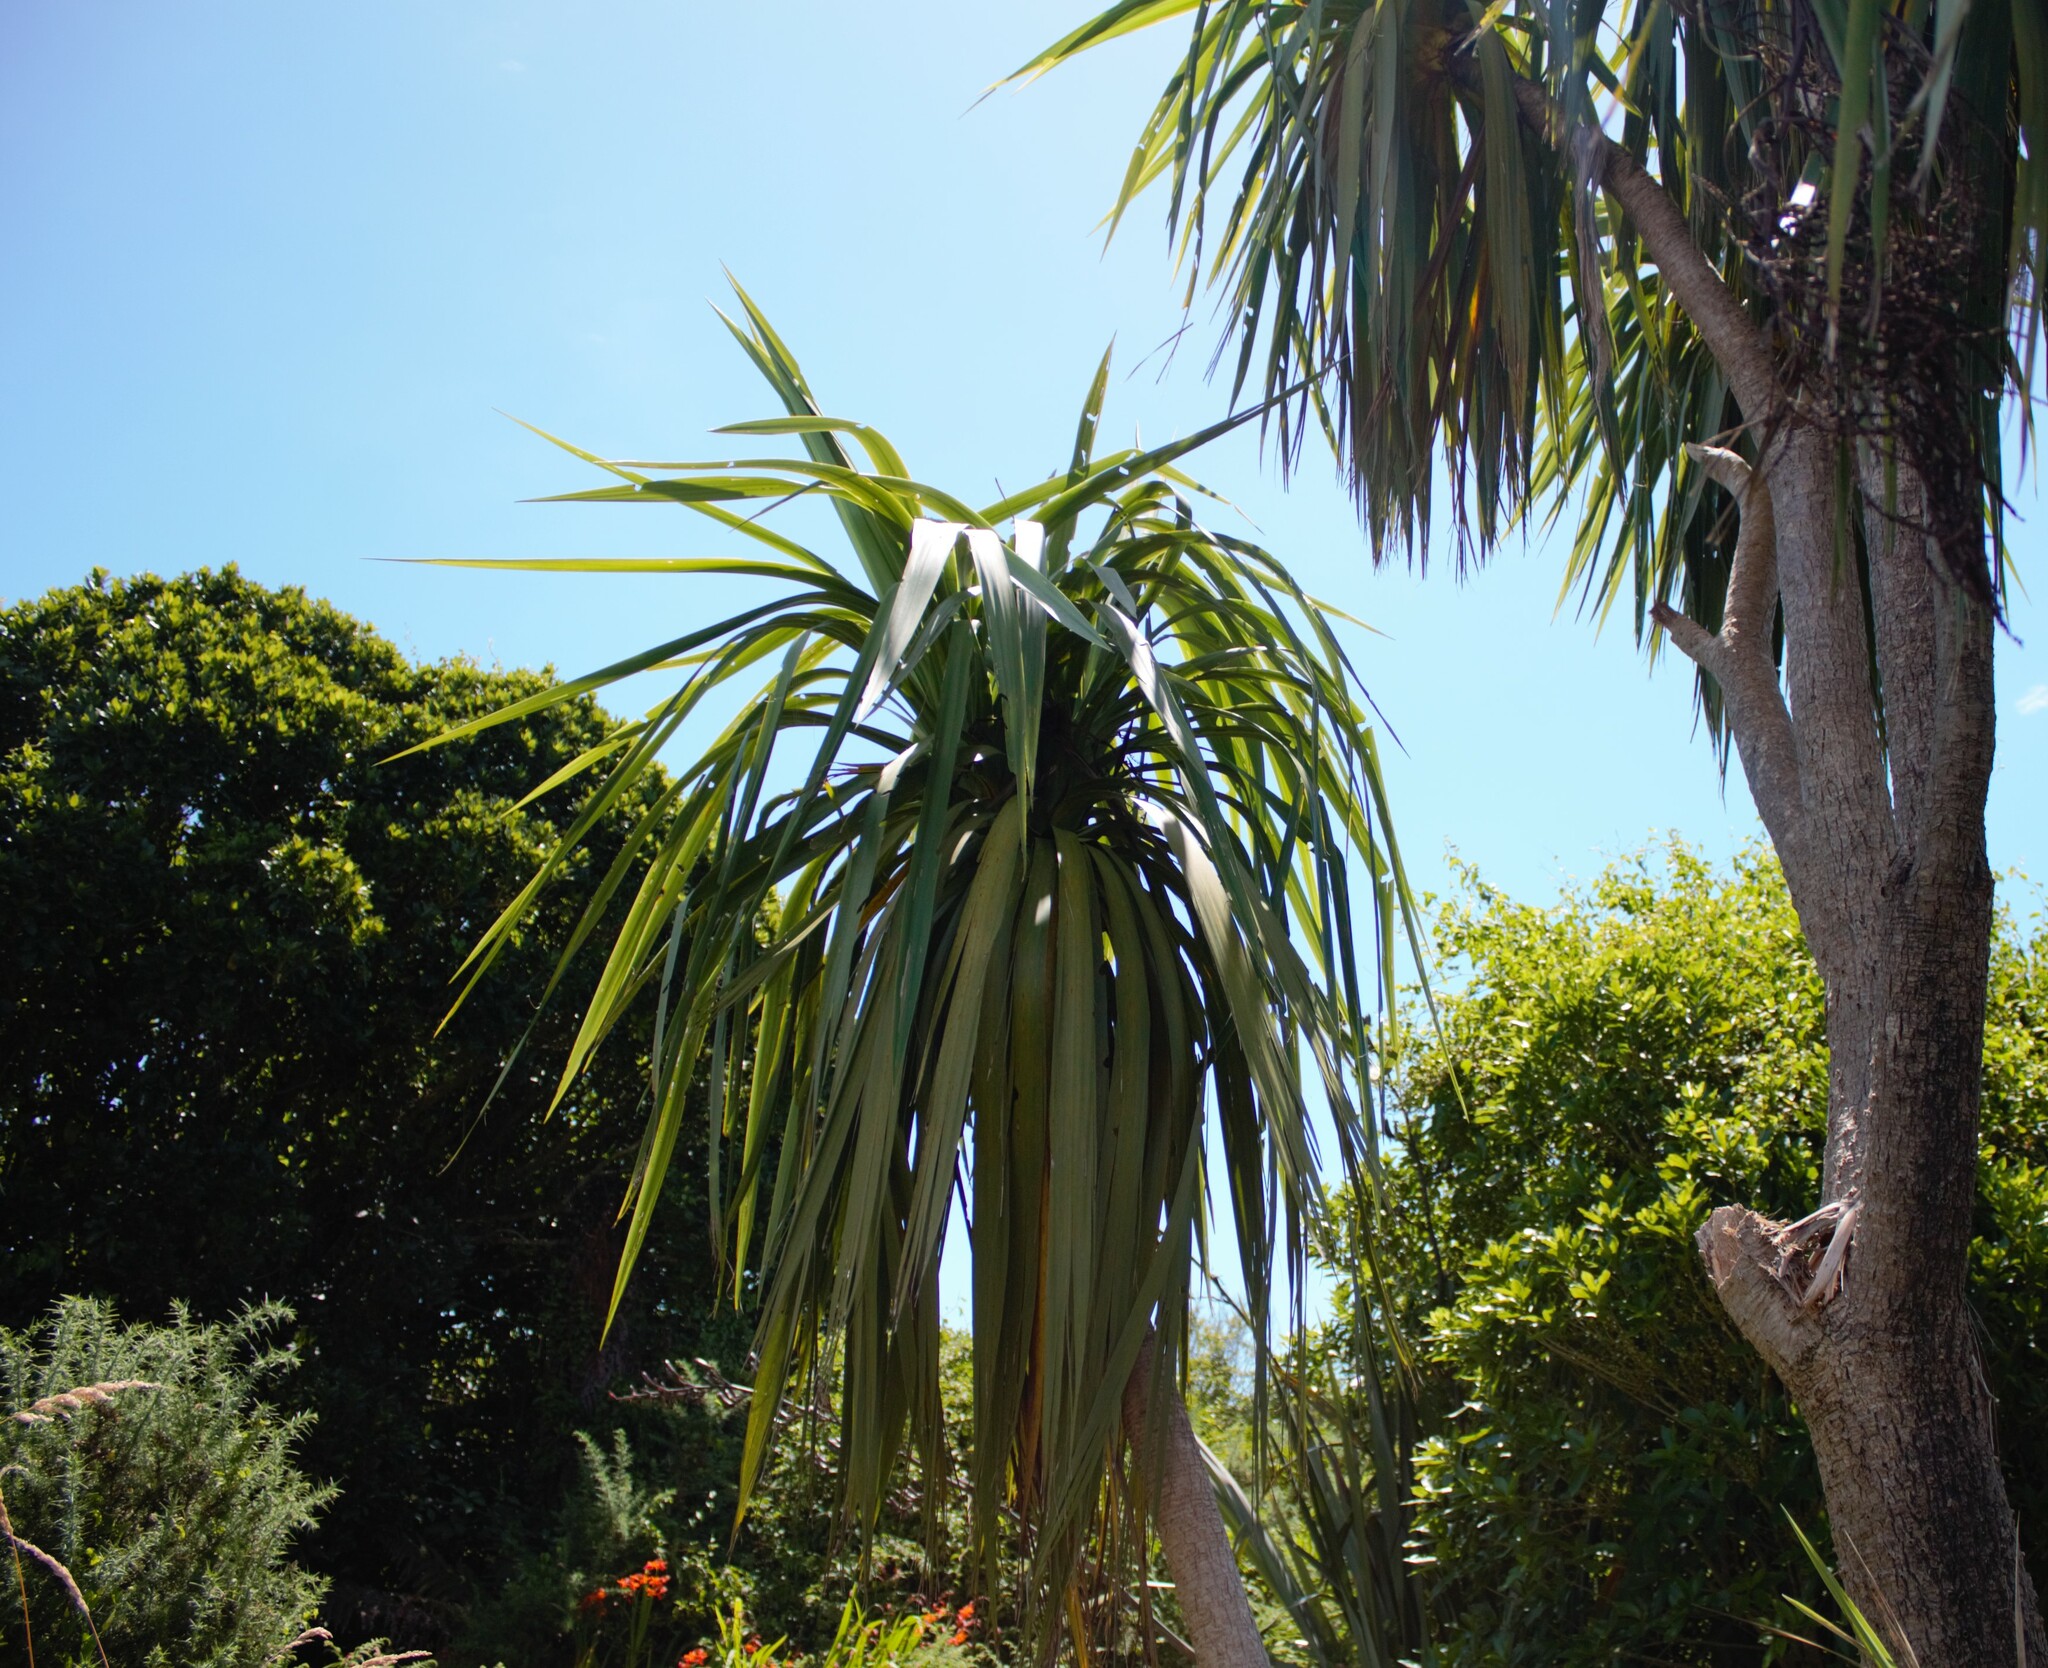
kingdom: Plantae
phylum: Tracheophyta
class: Liliopsida
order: Asparagales
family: Asparagaceae
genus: Cordyline
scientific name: Cordyline australis
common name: Cabbage-palm
